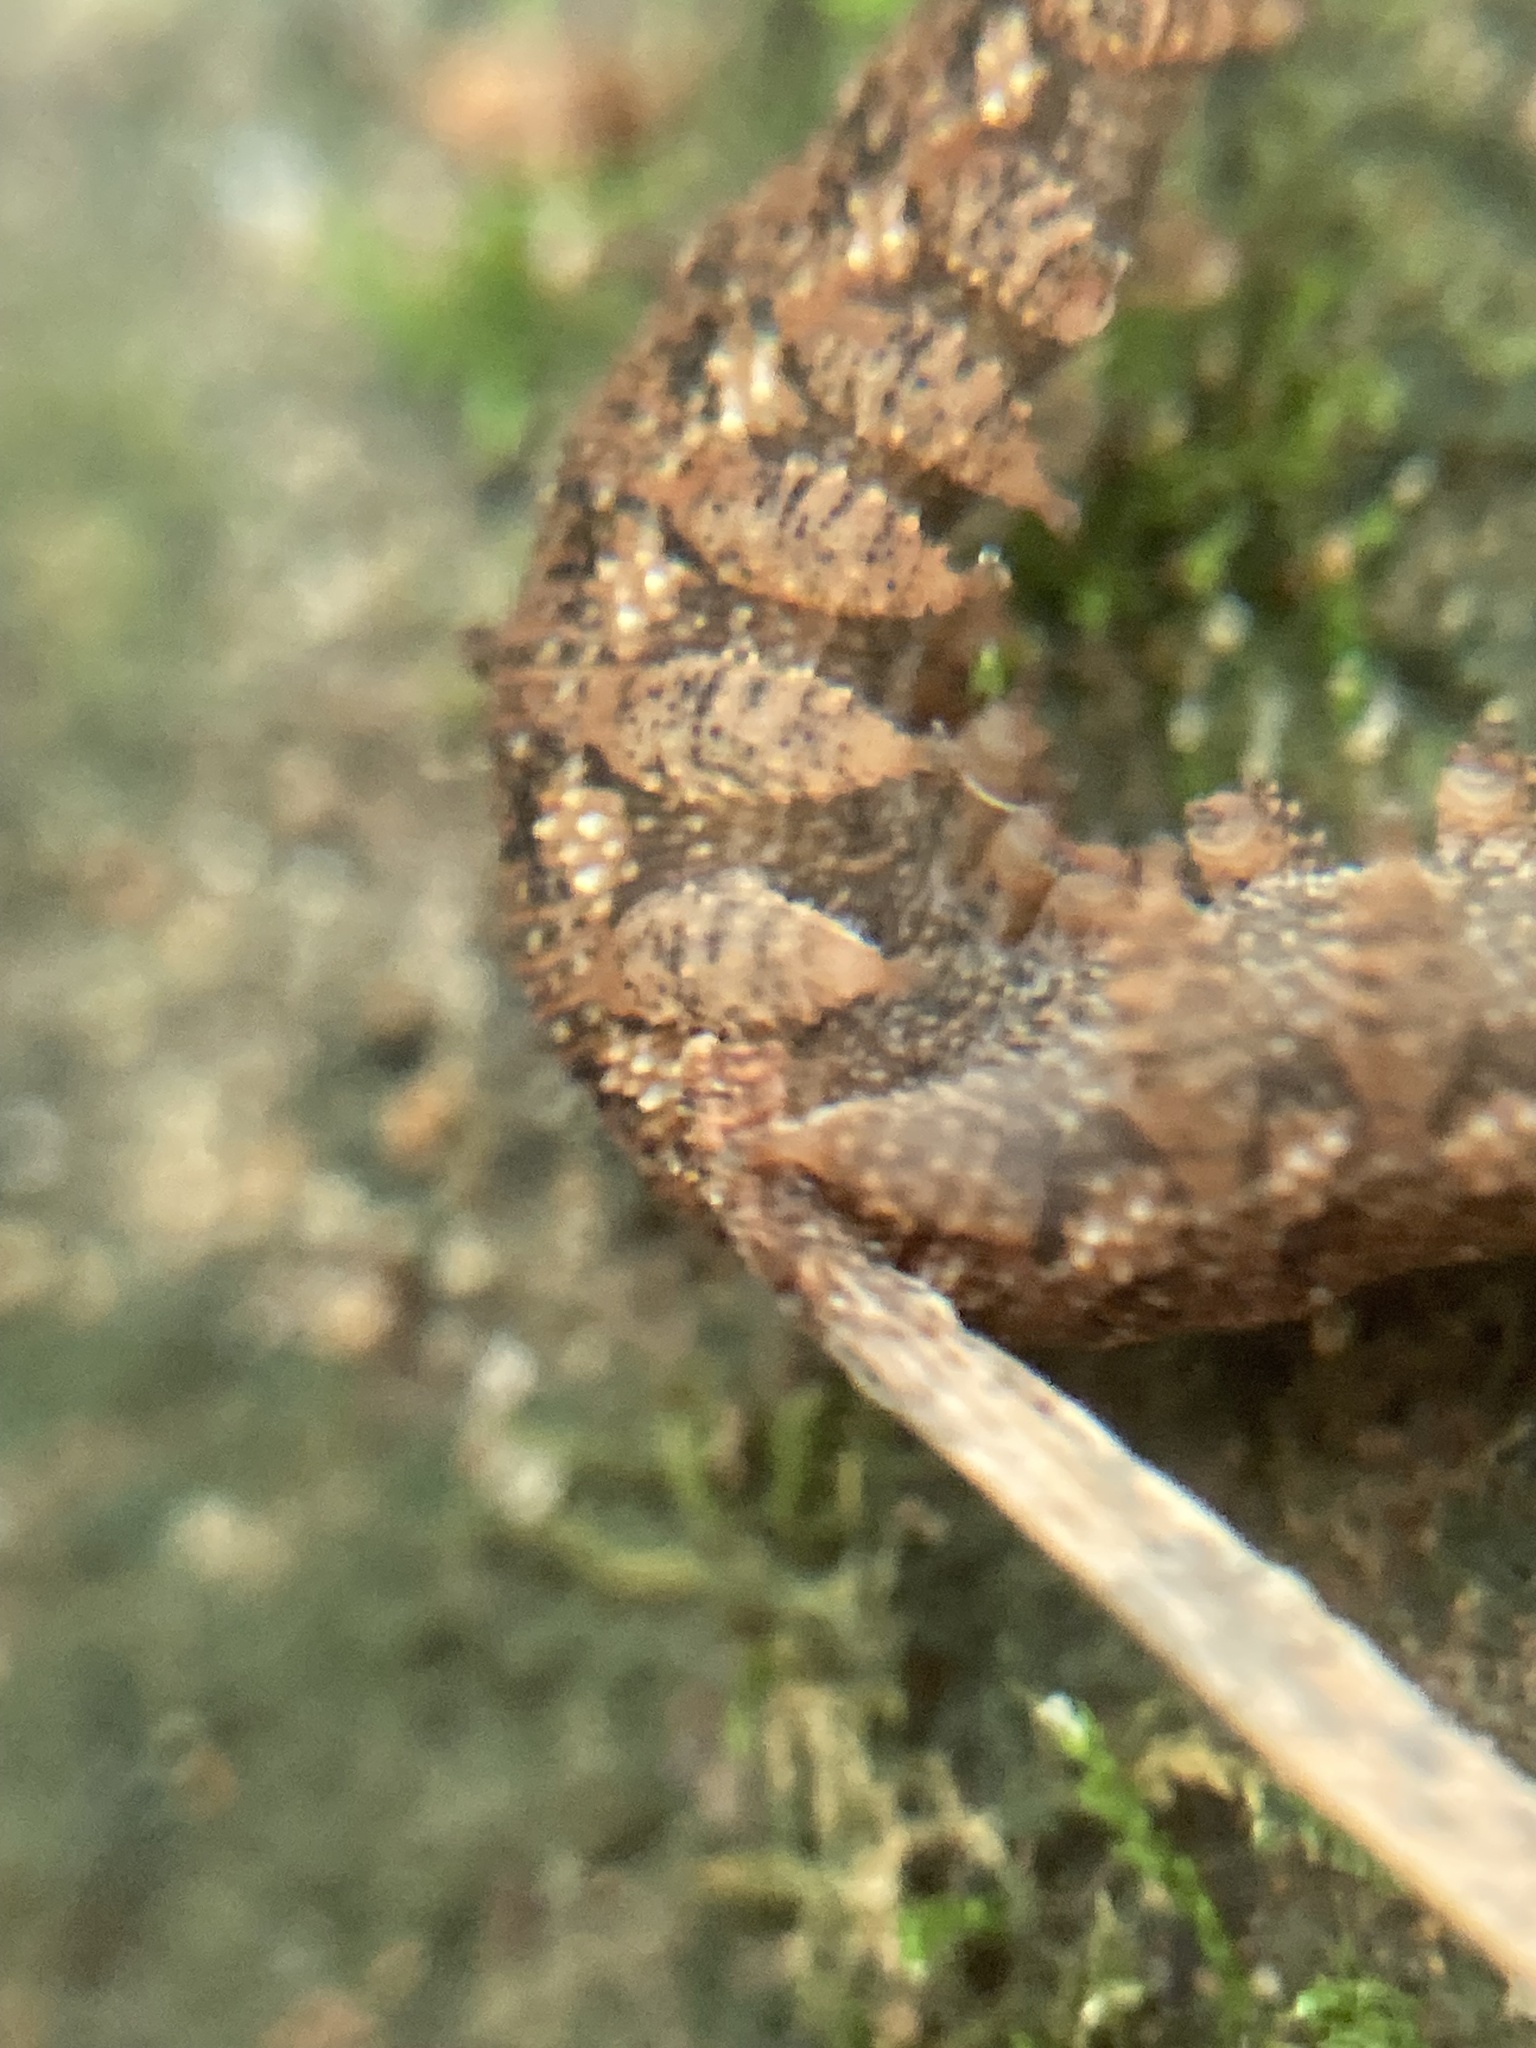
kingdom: Animalia
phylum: Onychophora
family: Peripatopsidae
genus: Anoplokaros
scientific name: Anoplokaros keerensis
